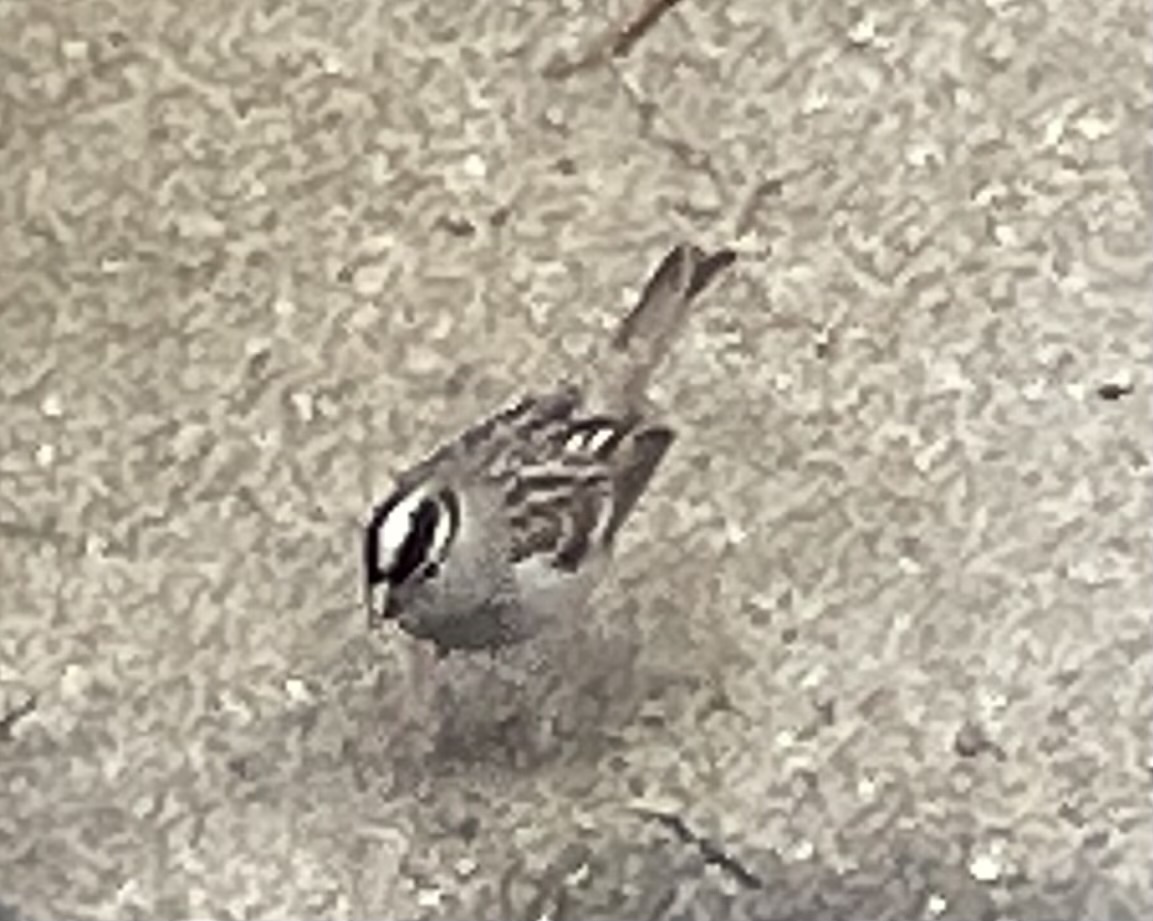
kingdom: Animalia
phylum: Chordata
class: Aves
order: Passeriformes
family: Passerellidae
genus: Zonotrichia
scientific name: Zonotrichia leucophrys
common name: White-crowned sparrow
